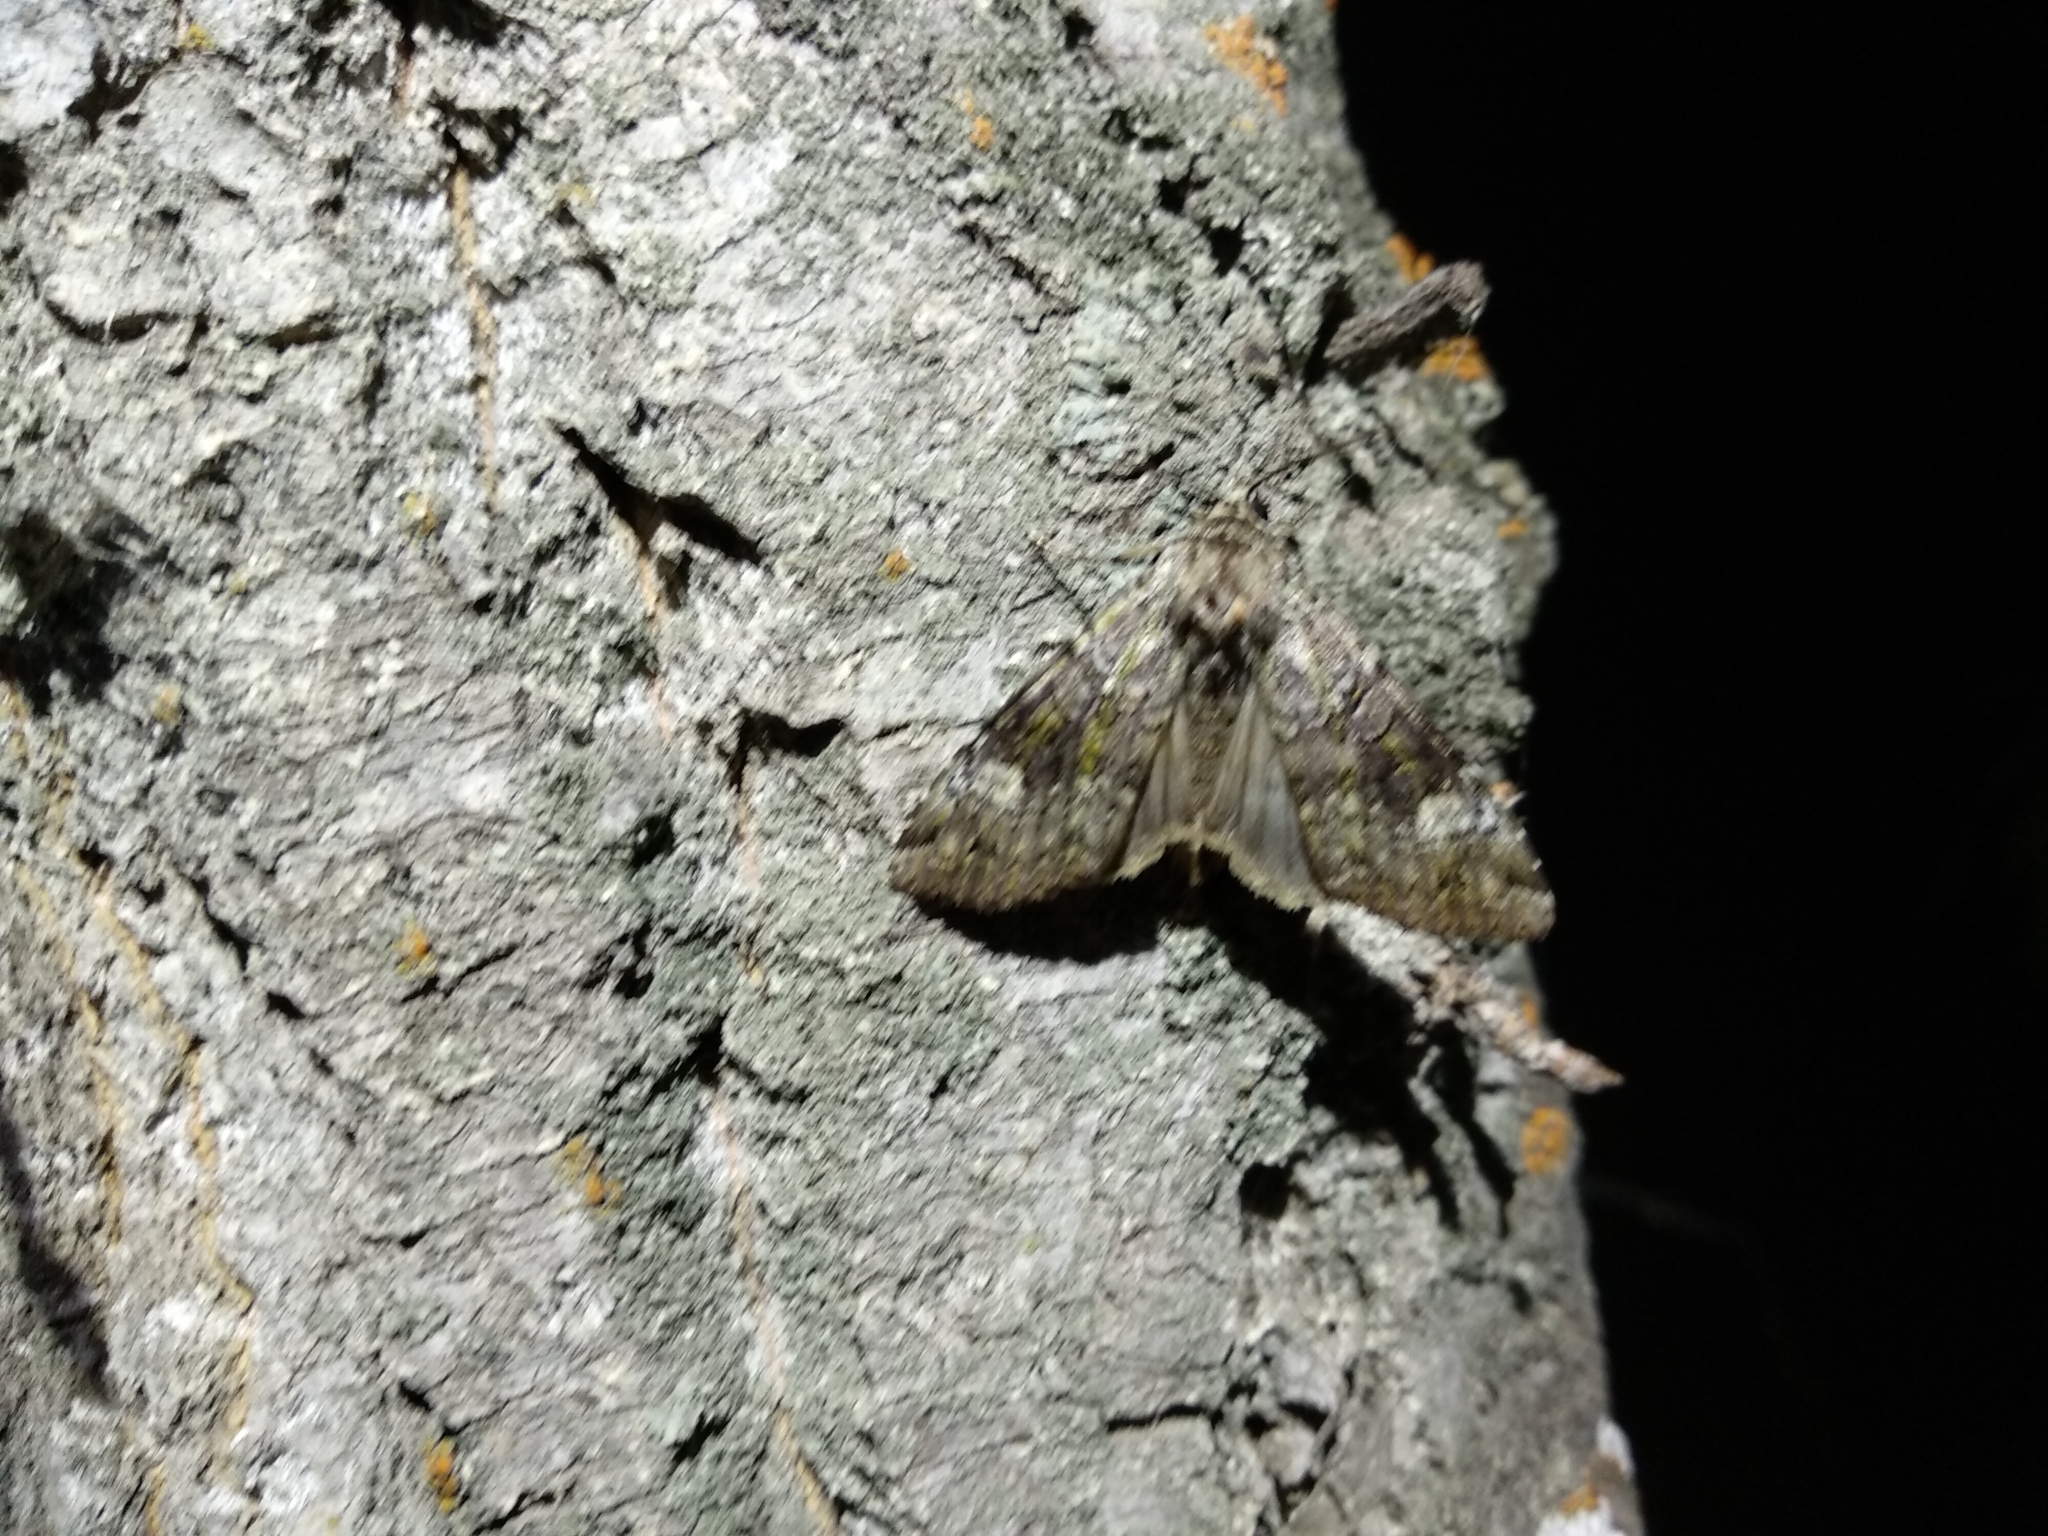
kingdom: Animalia
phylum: Arthropoda
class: Insecta
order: Lepidoptera
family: Noctuidae
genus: Anaplectoides
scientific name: Anaplectoides prasina
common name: Green arches
